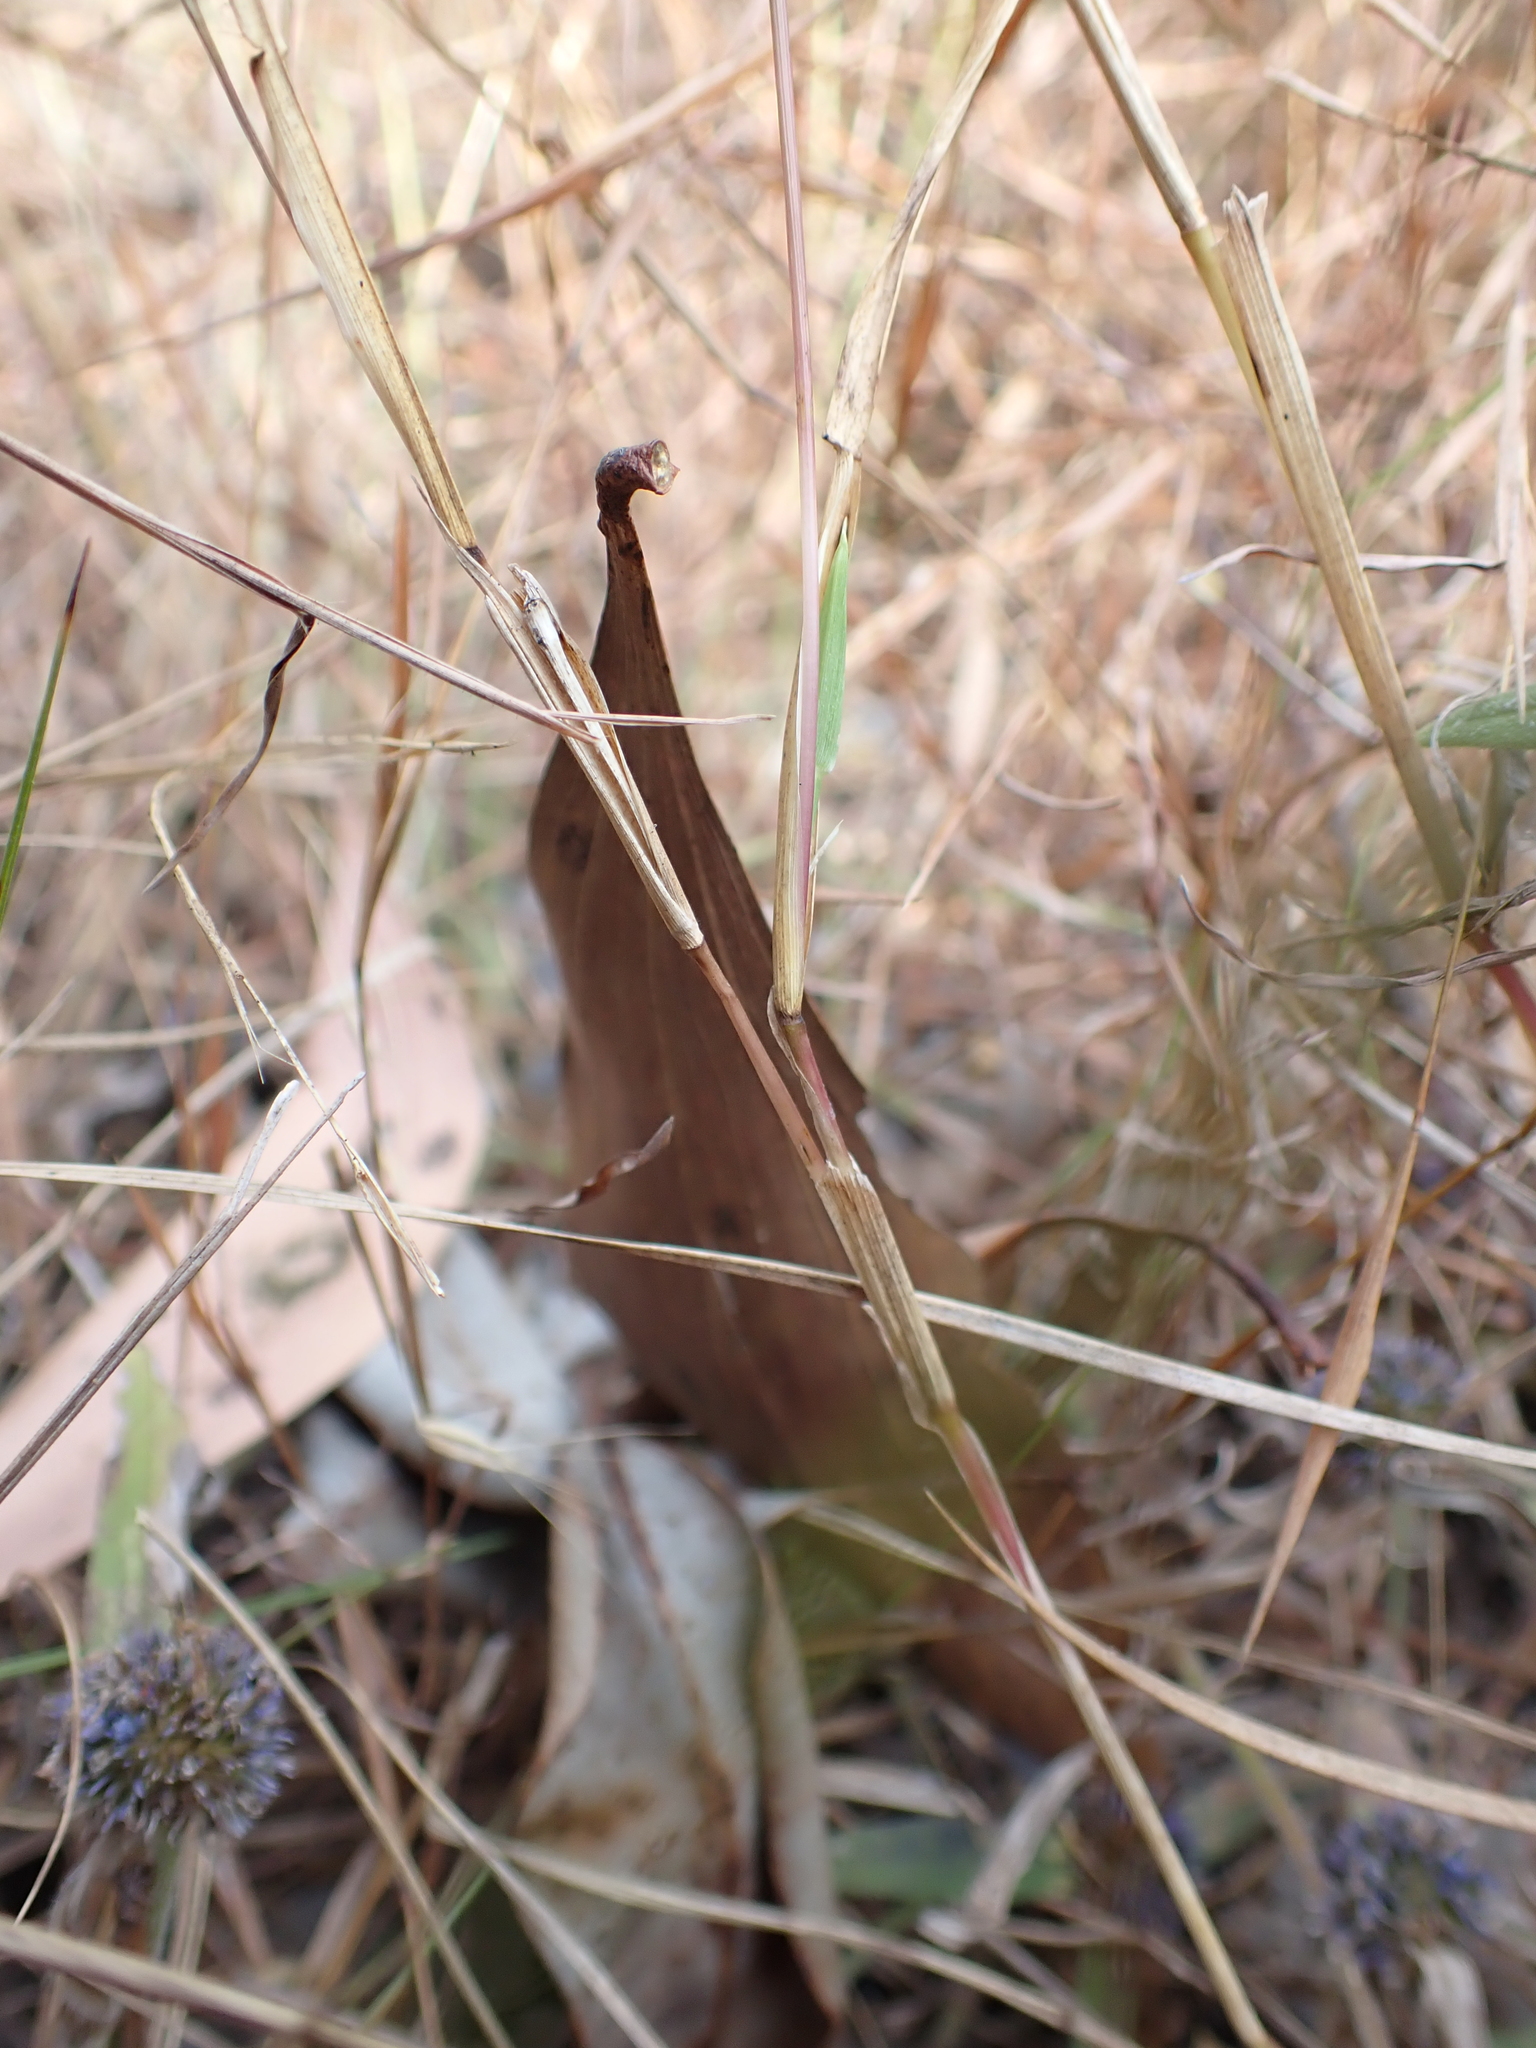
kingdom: Plantae
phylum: Tracheophyta
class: Liliopsida
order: Poales
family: Poaceae
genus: Setaria
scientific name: Setaria surgens
